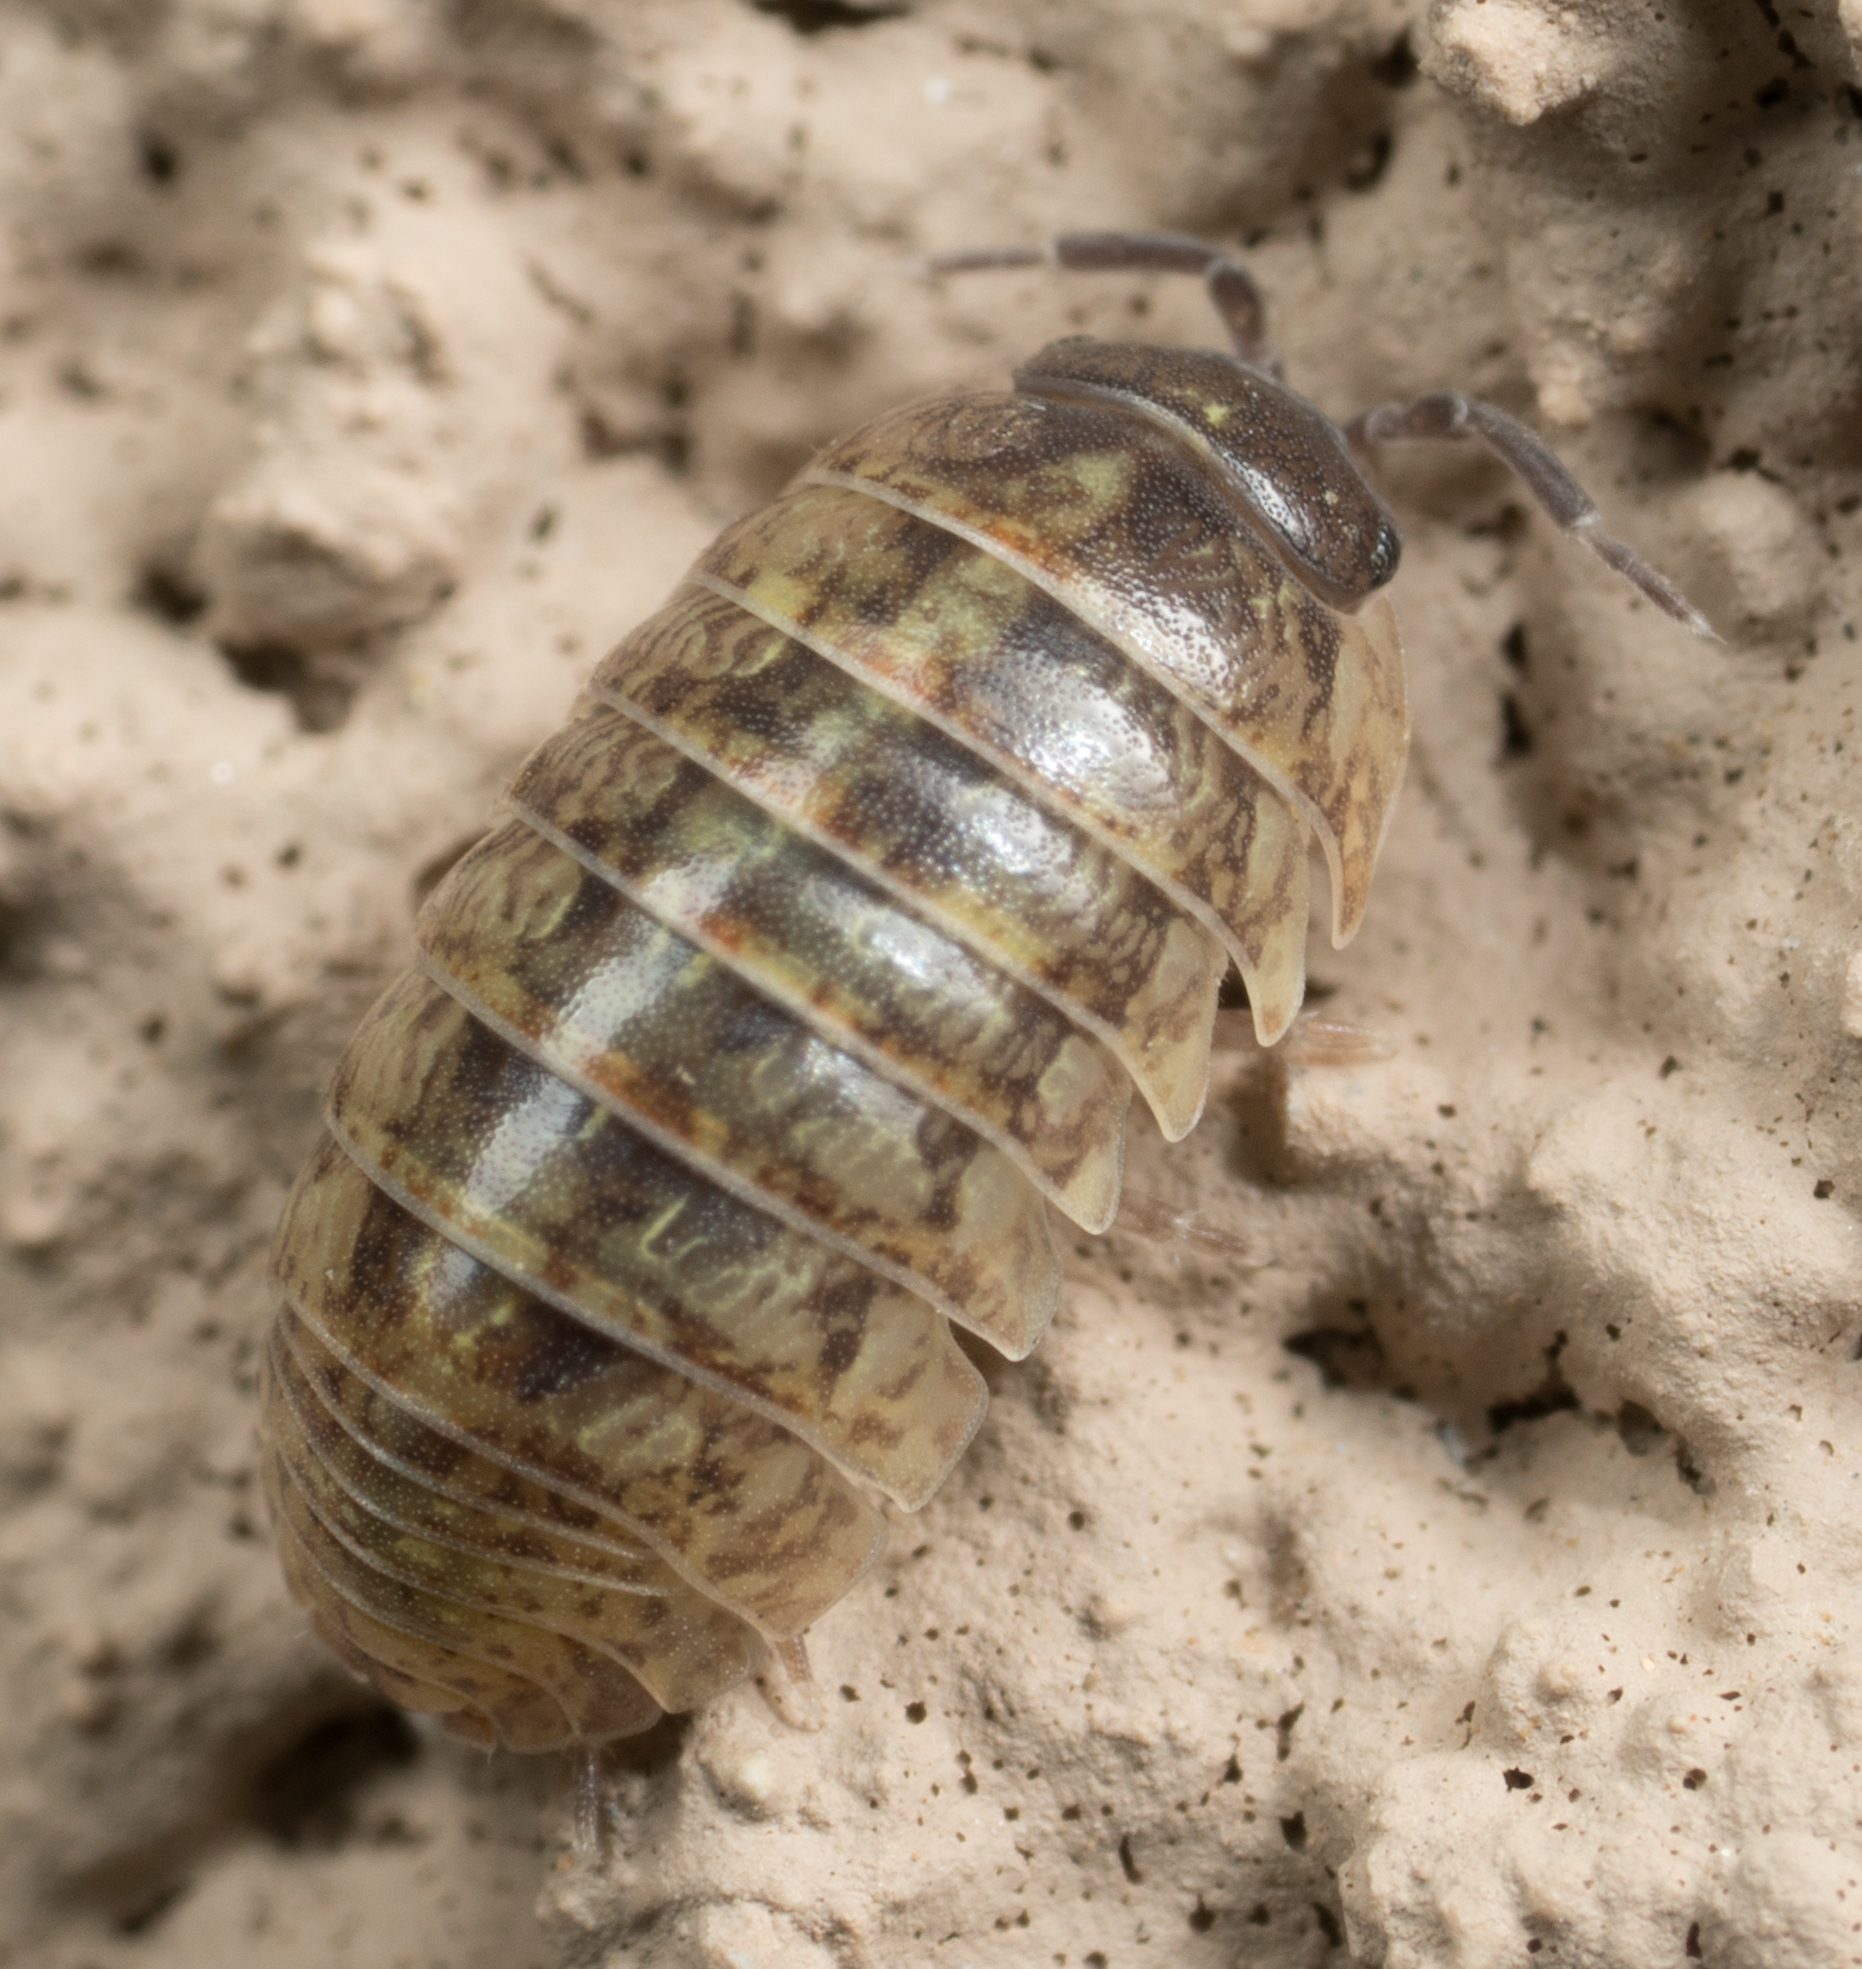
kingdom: Animalia
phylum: Arthropoda
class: Malacostraca
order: Isopoda
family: Armadillidiidae
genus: Armadillidium
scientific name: Armadillidium vulgare
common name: Common pill woodlouse
